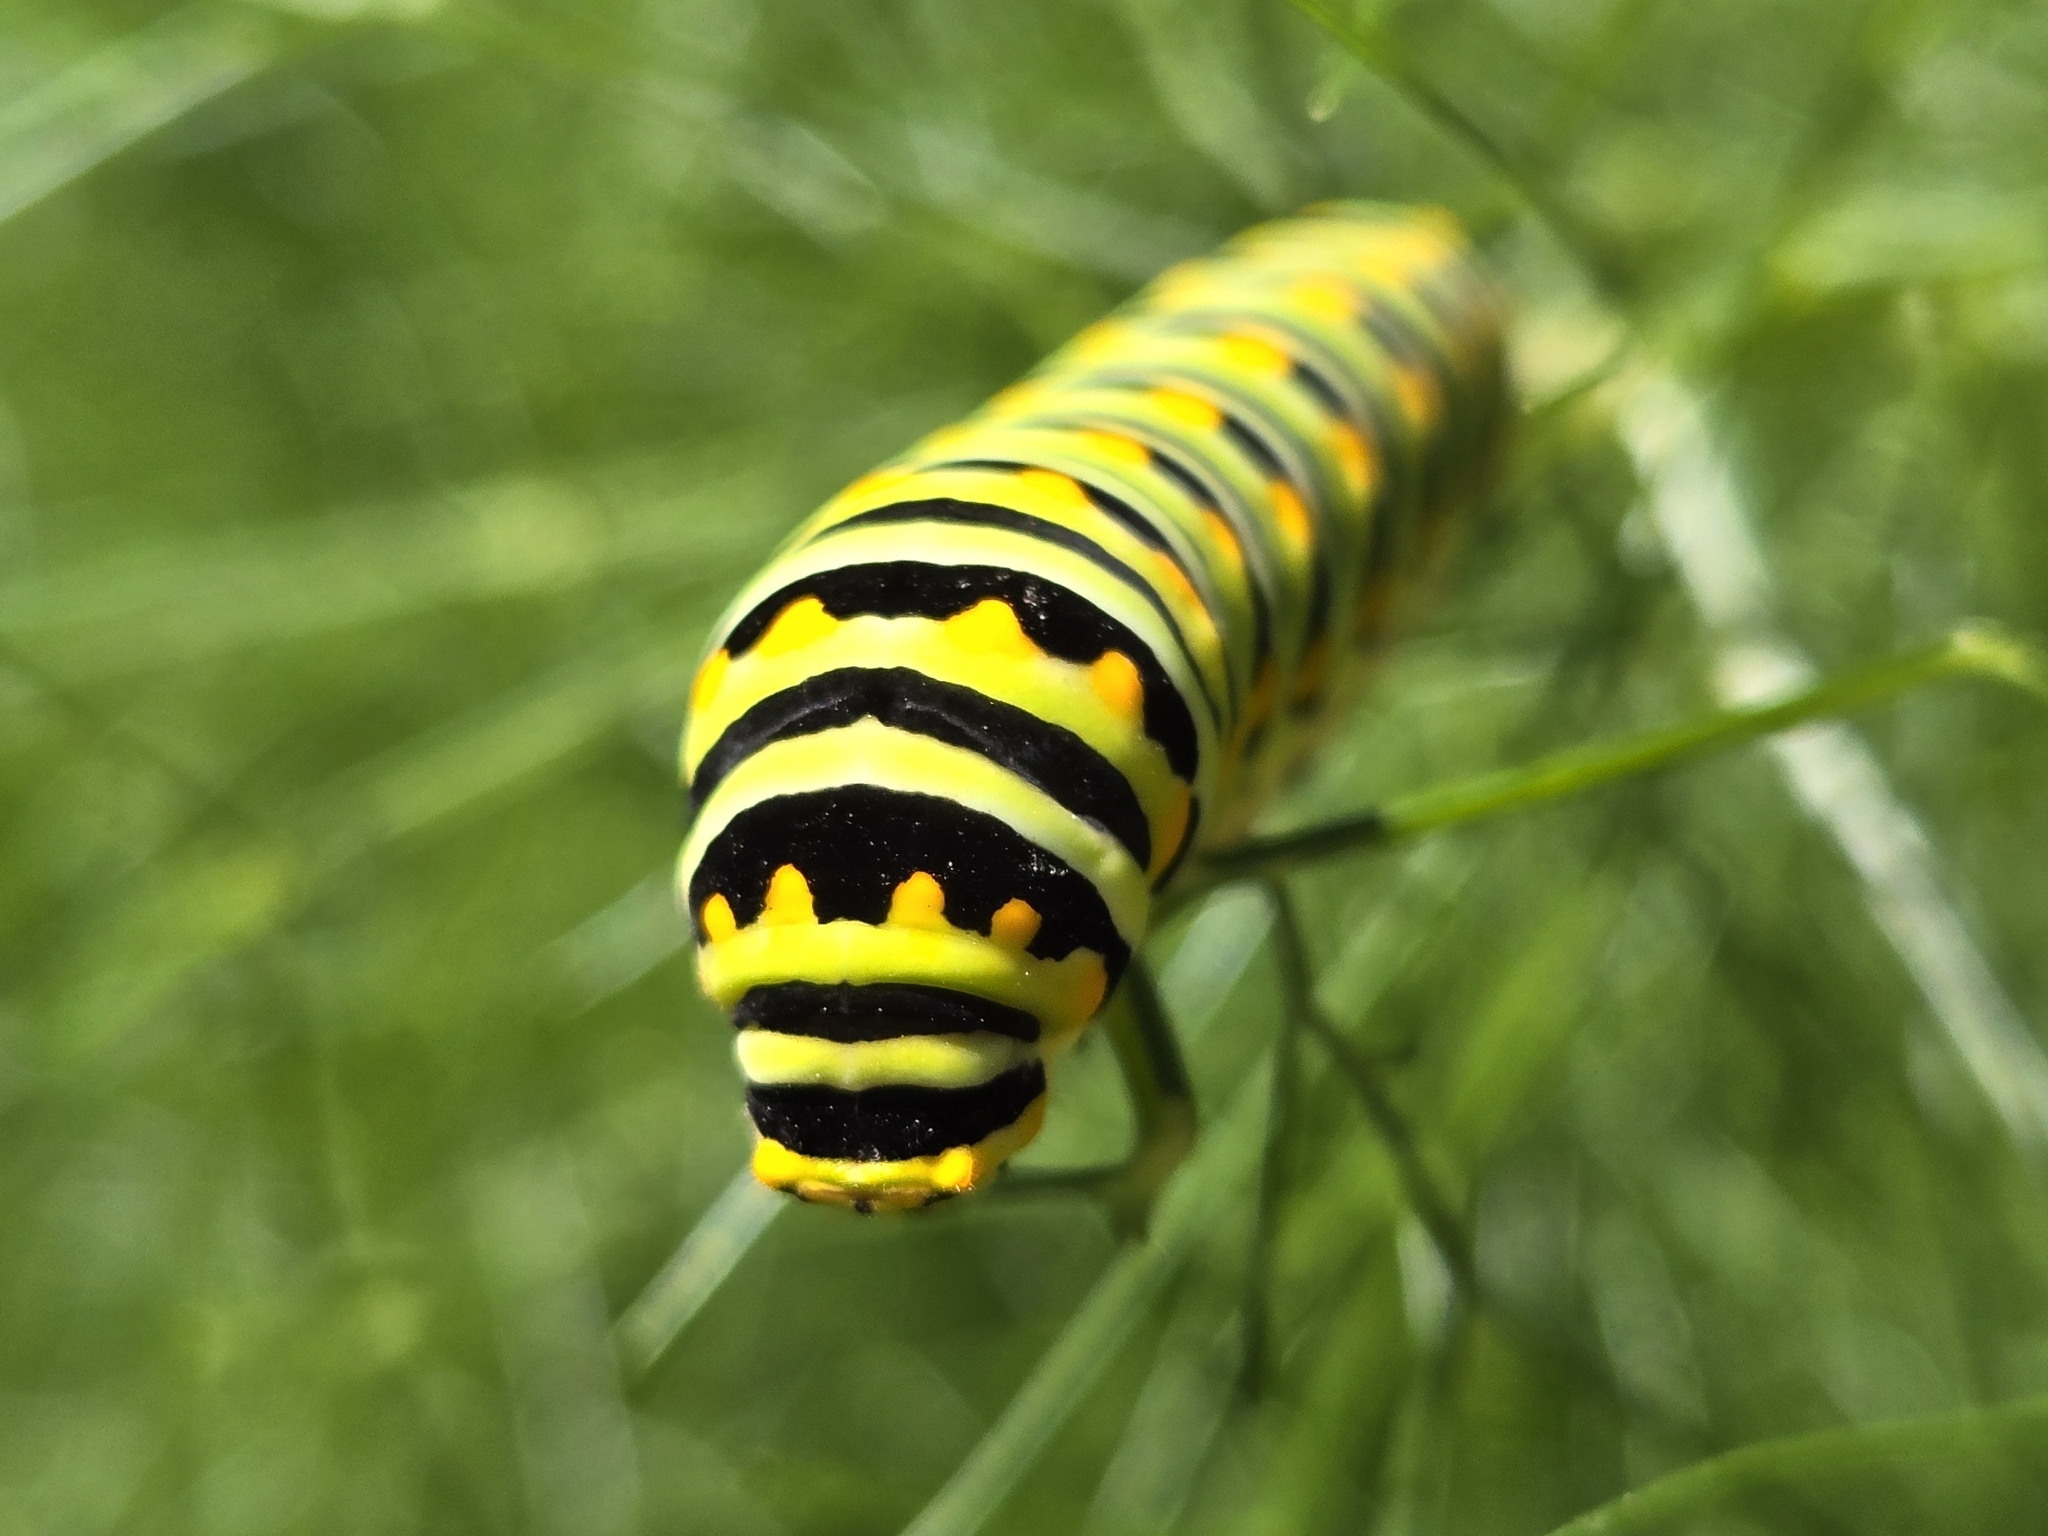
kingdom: Animalia
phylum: Arthropoda
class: Insecta
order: Lepidoptera
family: Papilionidae
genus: Papilio
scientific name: Papilio polyxenes
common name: Black swallowtail
